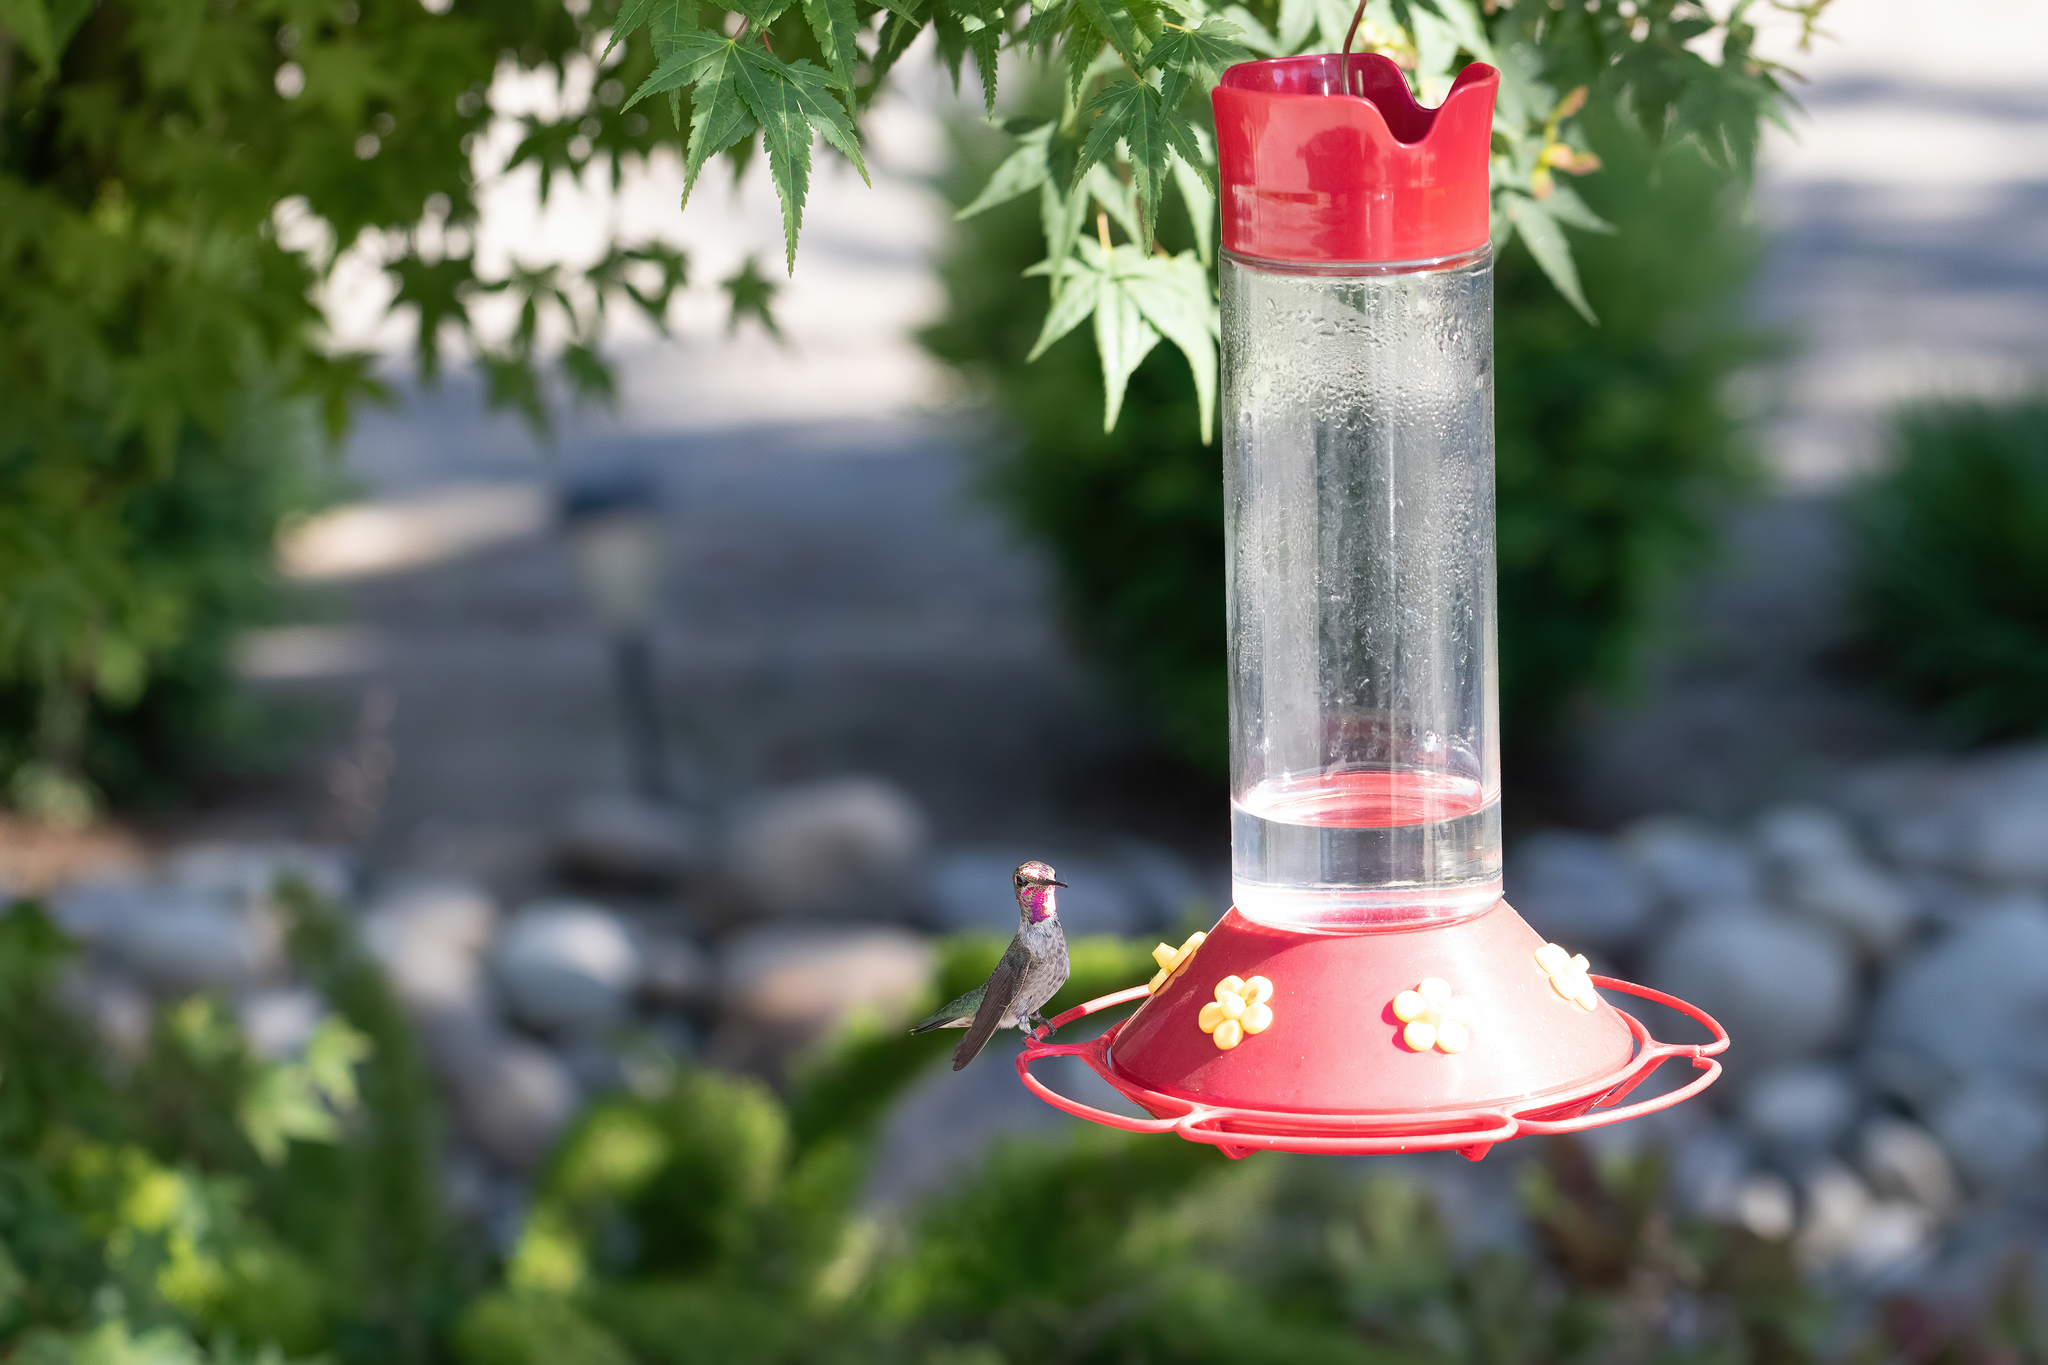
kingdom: Animalia
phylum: Chordata
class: Aves
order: Apodiformes
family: Trochilidae
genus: Calypte
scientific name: Calypte anna
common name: Anna's hummingbird
